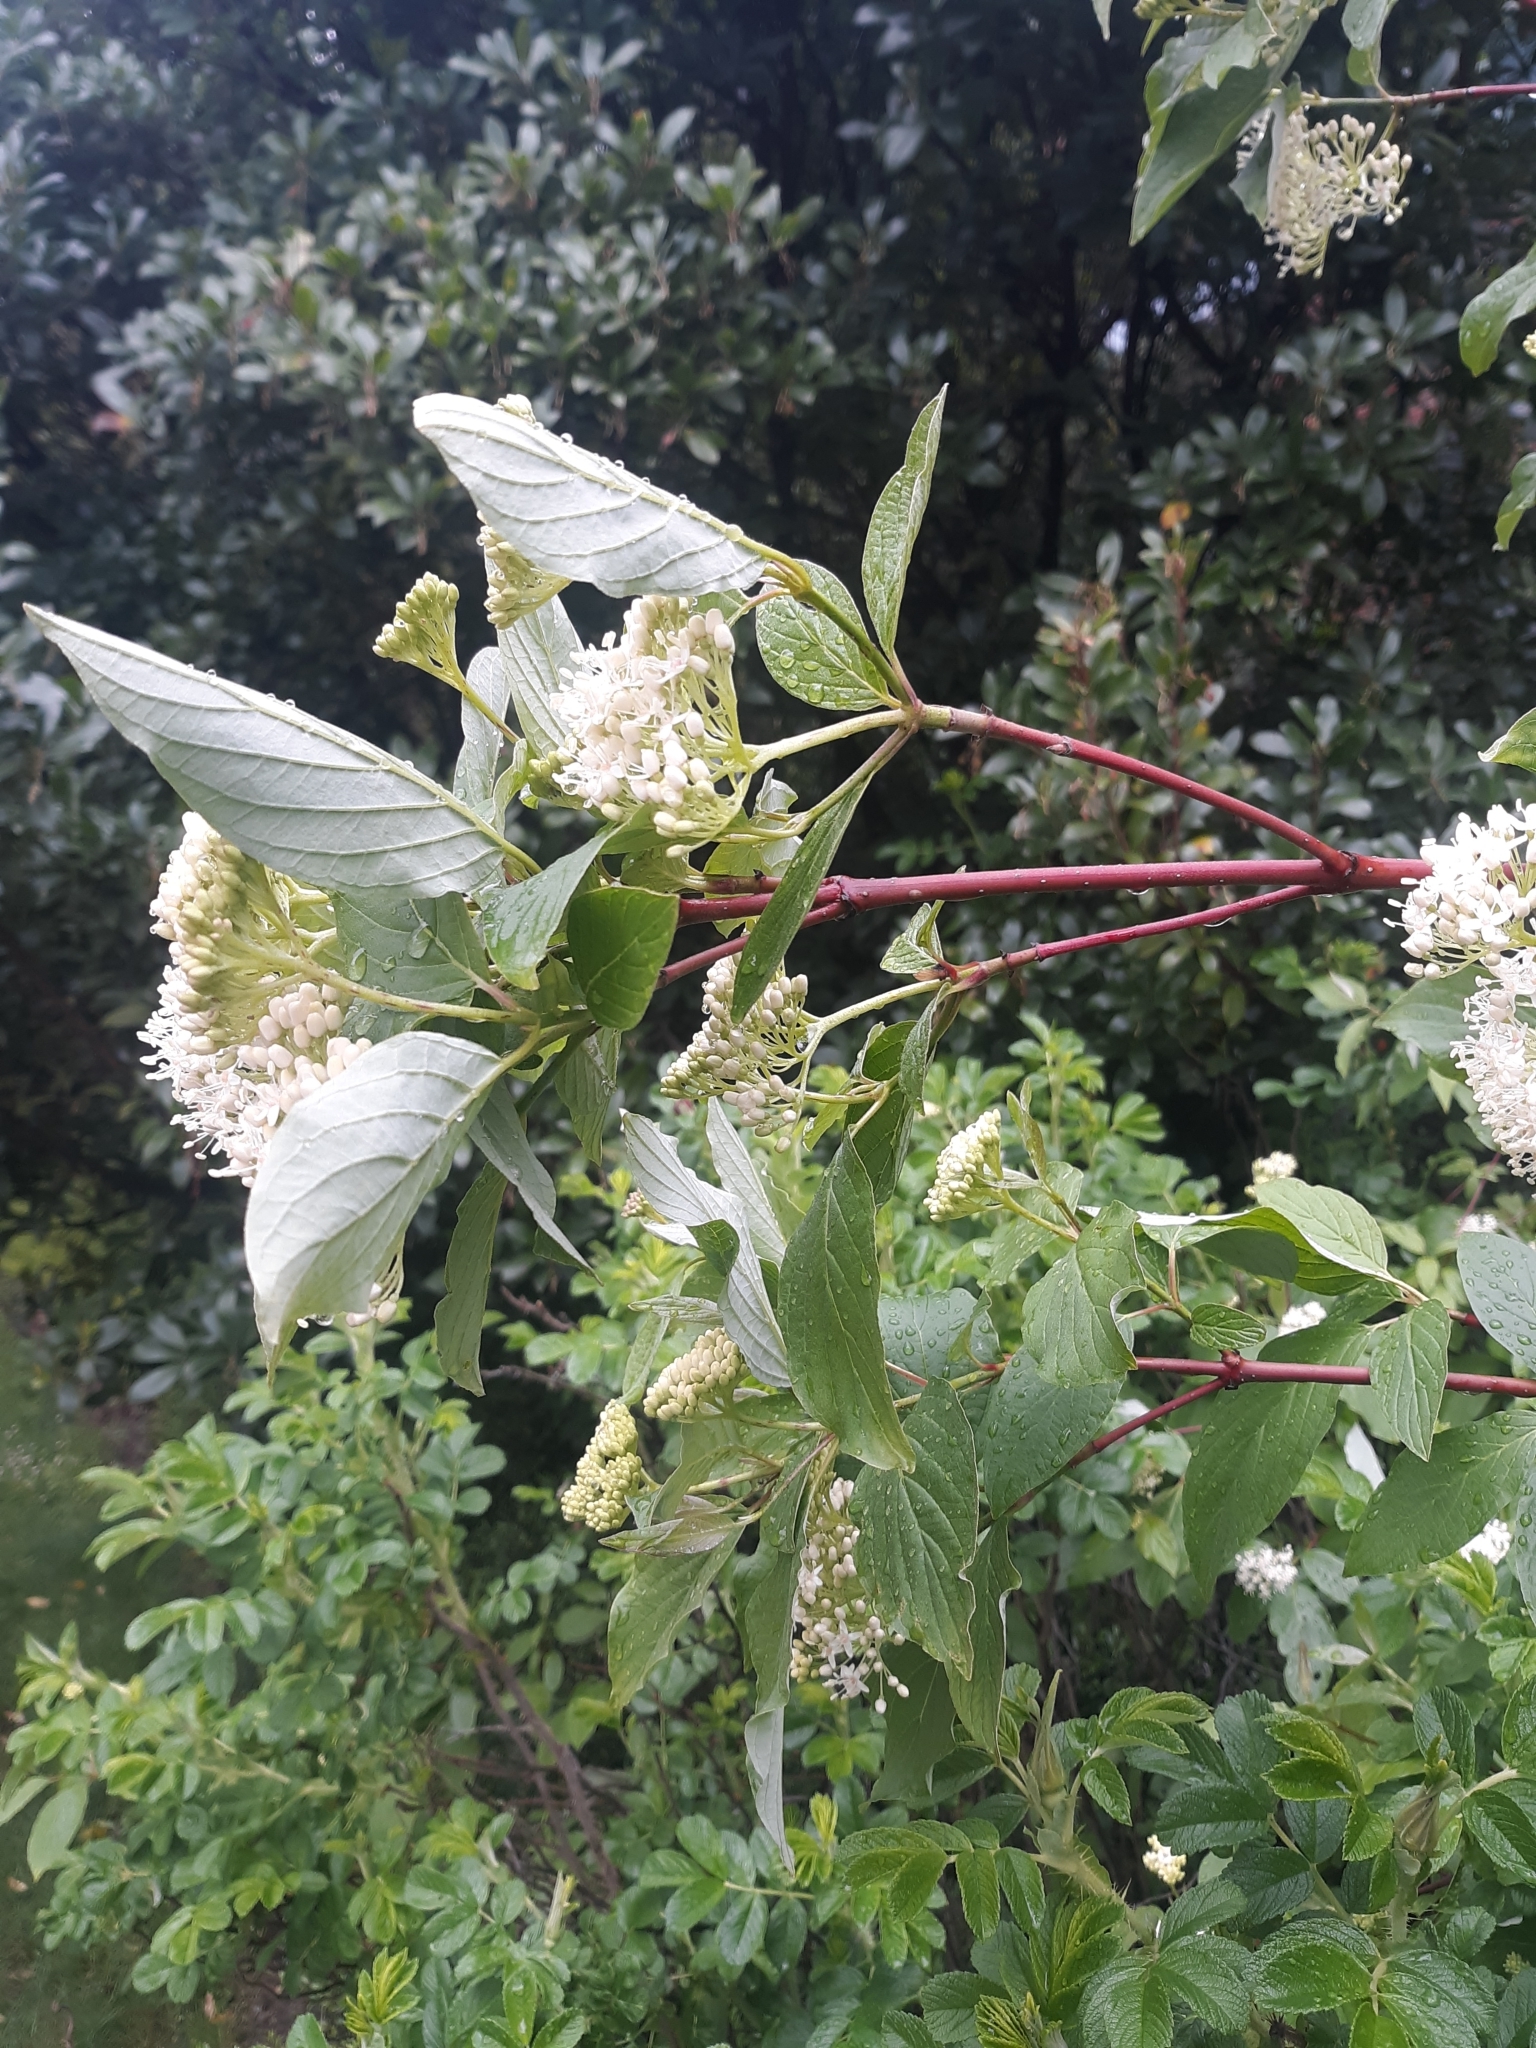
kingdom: Plantae
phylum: Tracheophyta
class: Magnoliopsida
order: Cornales
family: Cornaceae
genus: Cornus
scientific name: Cornus sericea
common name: Red-osier dogwood
